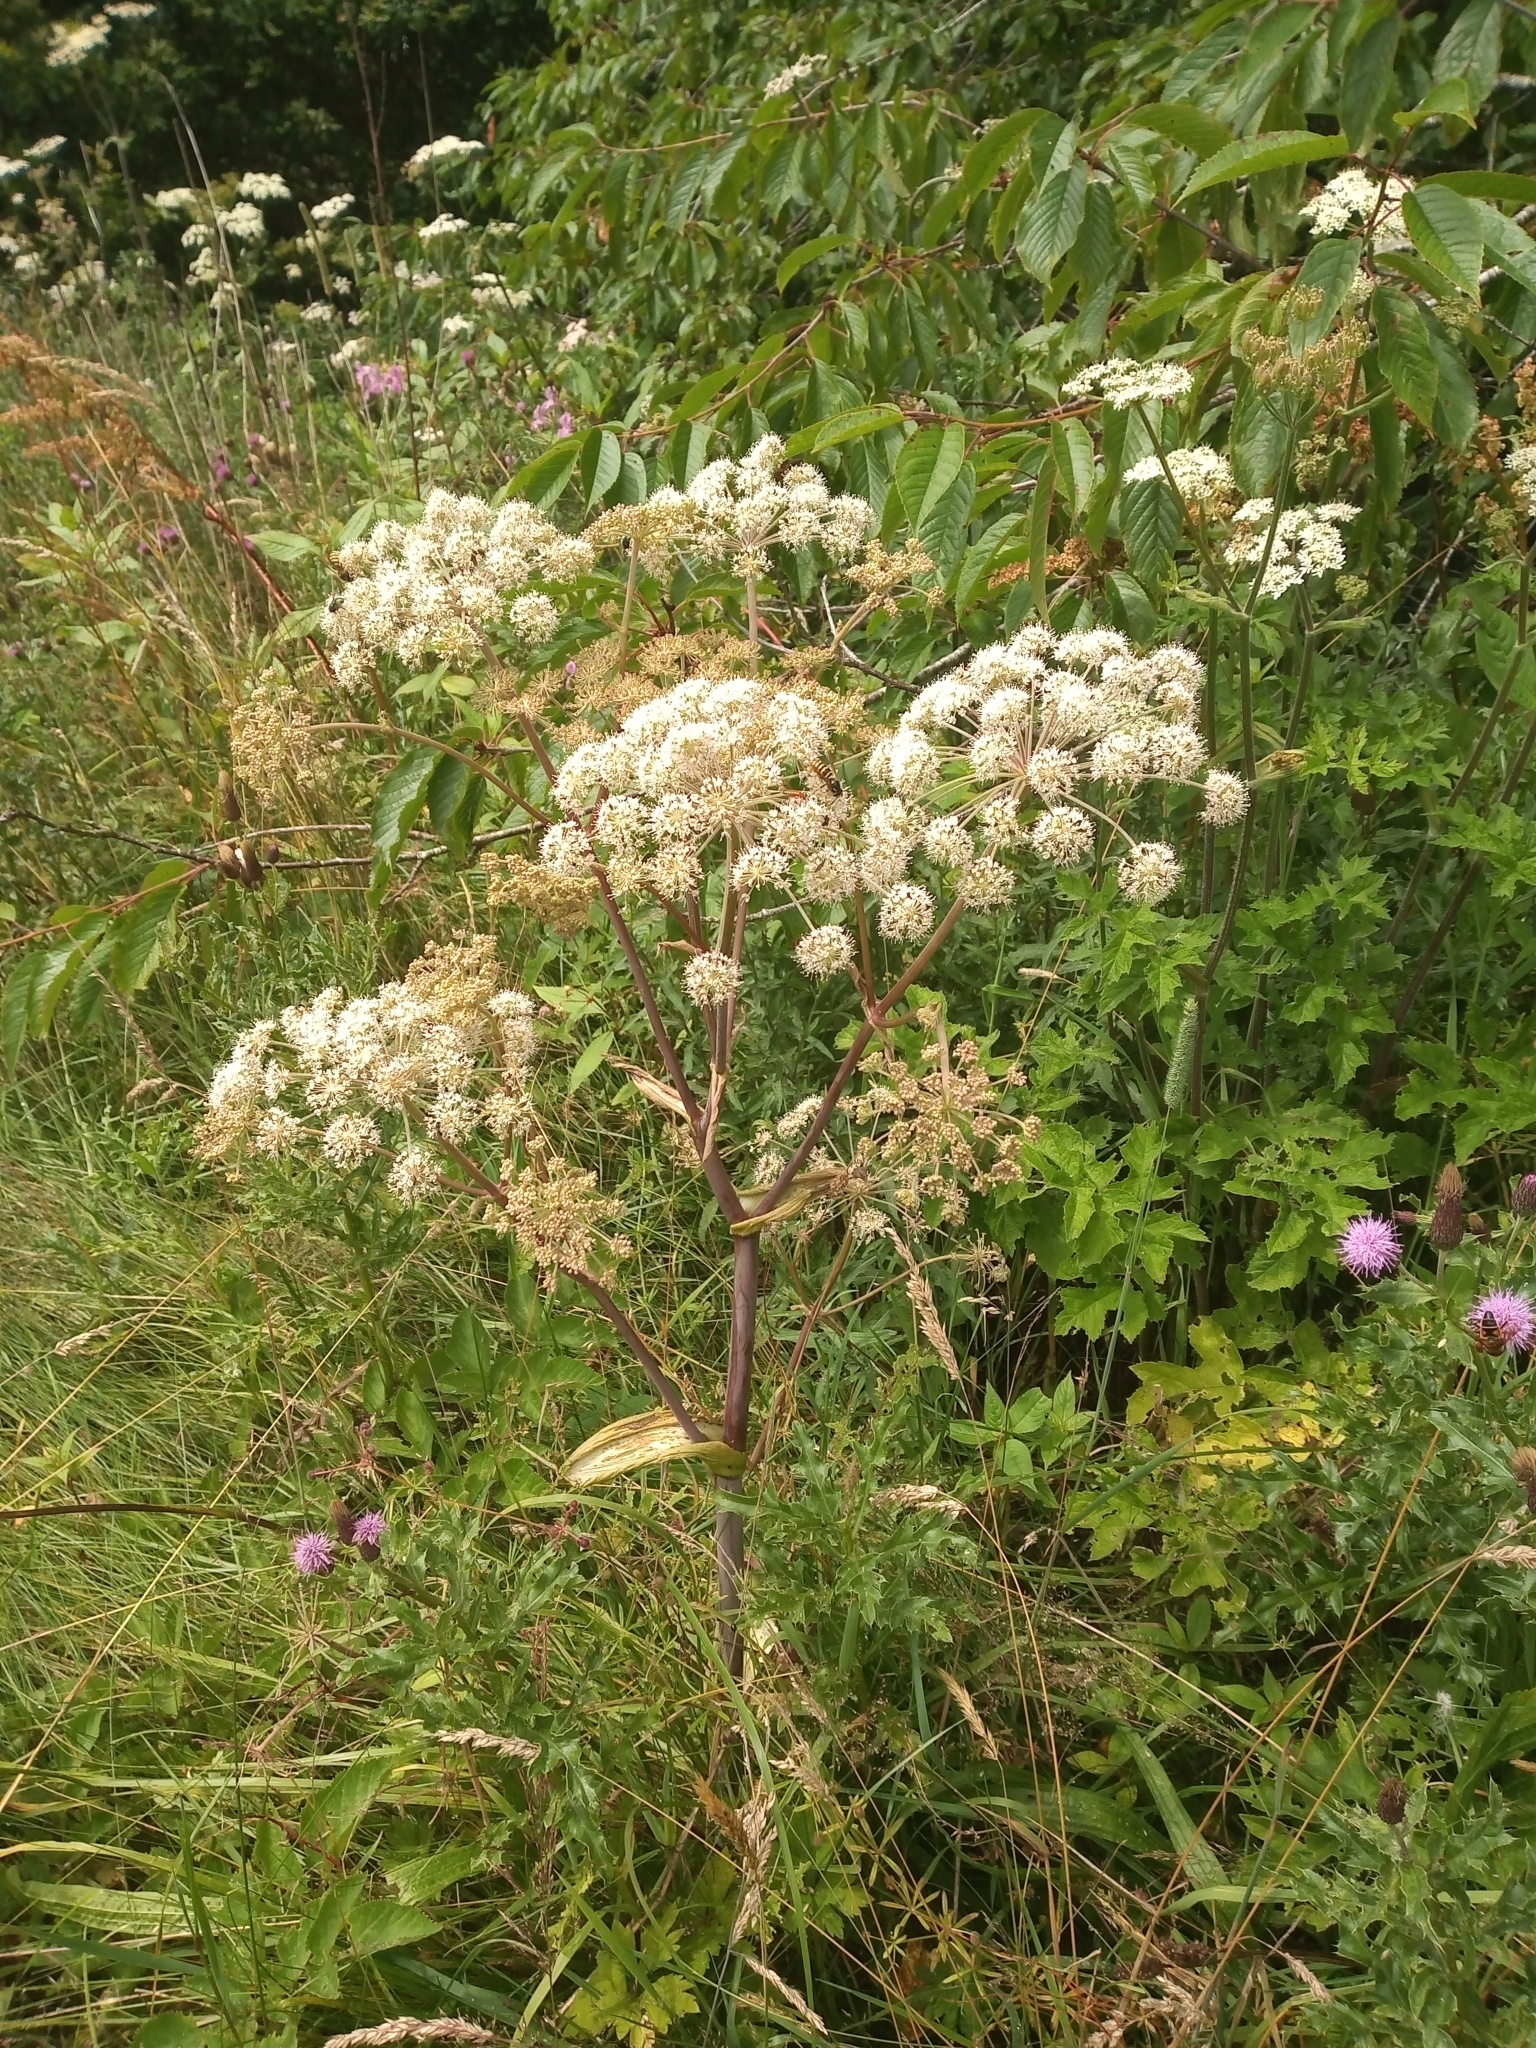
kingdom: Plantae
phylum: Tracheophyta
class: Magnoliopsida
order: Apiales
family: Apiaceae
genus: Angelica
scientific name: Angelica sylvestris
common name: Wild angelica
